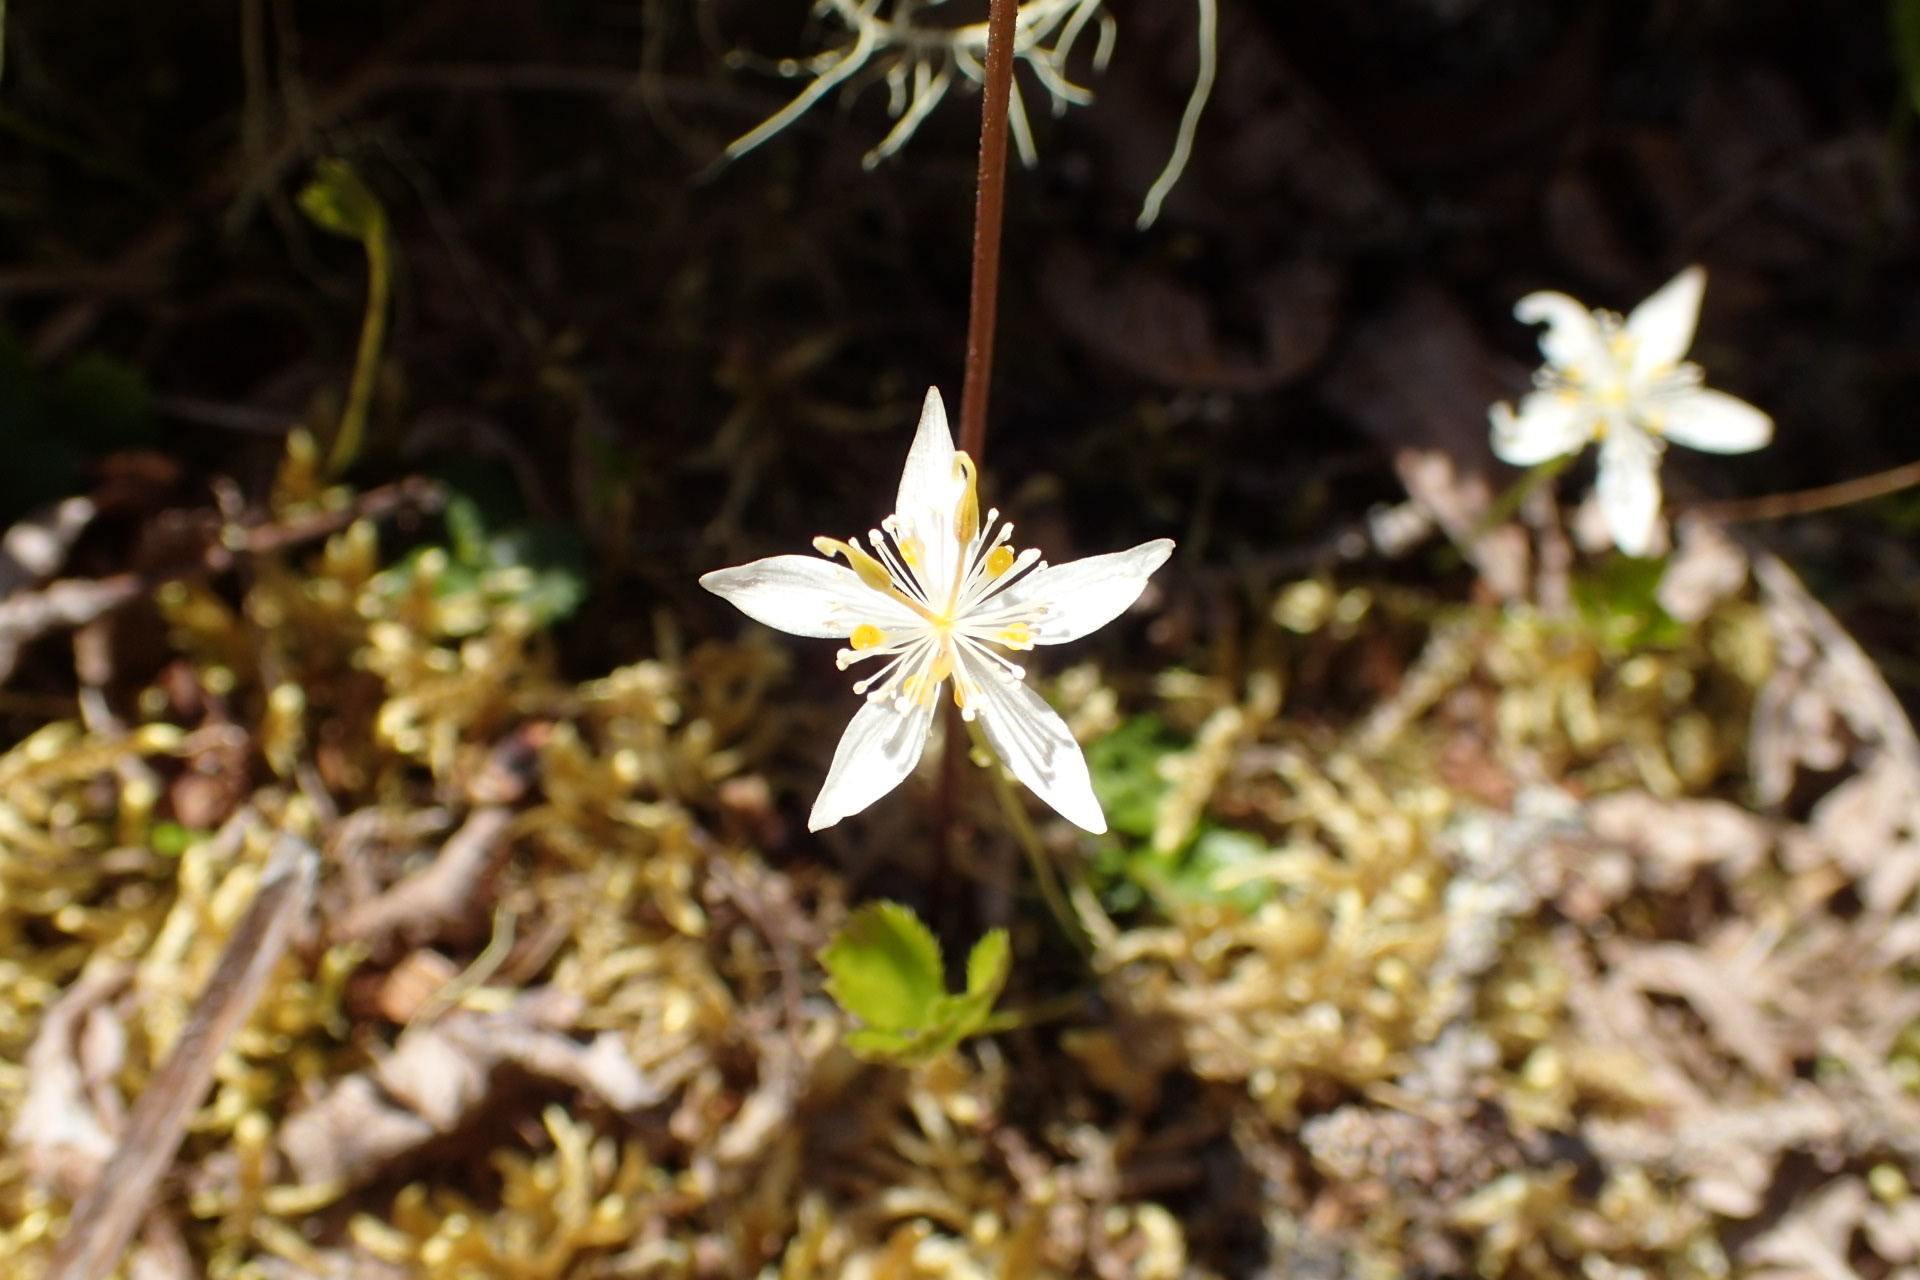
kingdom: Plantae
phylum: Tracheophyta
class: Magnoliopsida
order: Ranunculales
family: Ranunculaceae
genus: Coptis
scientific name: Coptis trifolia
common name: Canker-root
